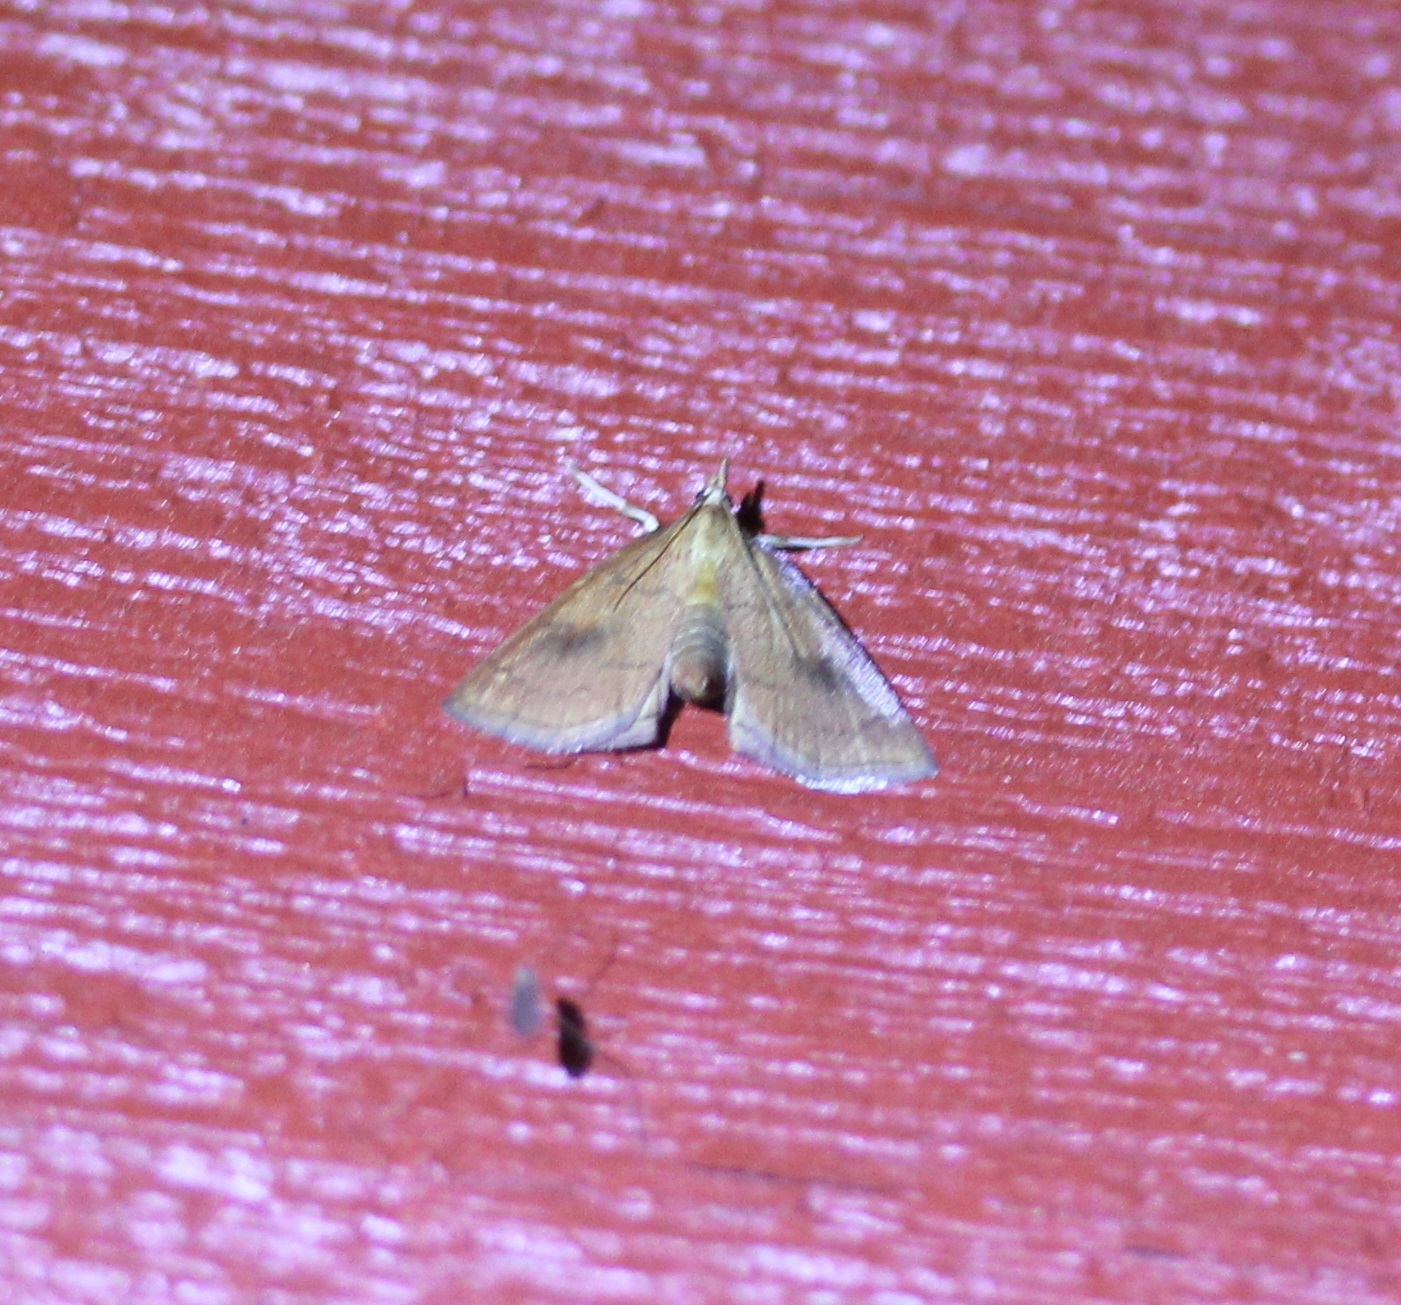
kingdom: Animalia
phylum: Arthropoda
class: Insecta
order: Lepidoptera
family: Crambidae
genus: Fumibotys
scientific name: Fumibotys fumalis
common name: Mint root borer moth
